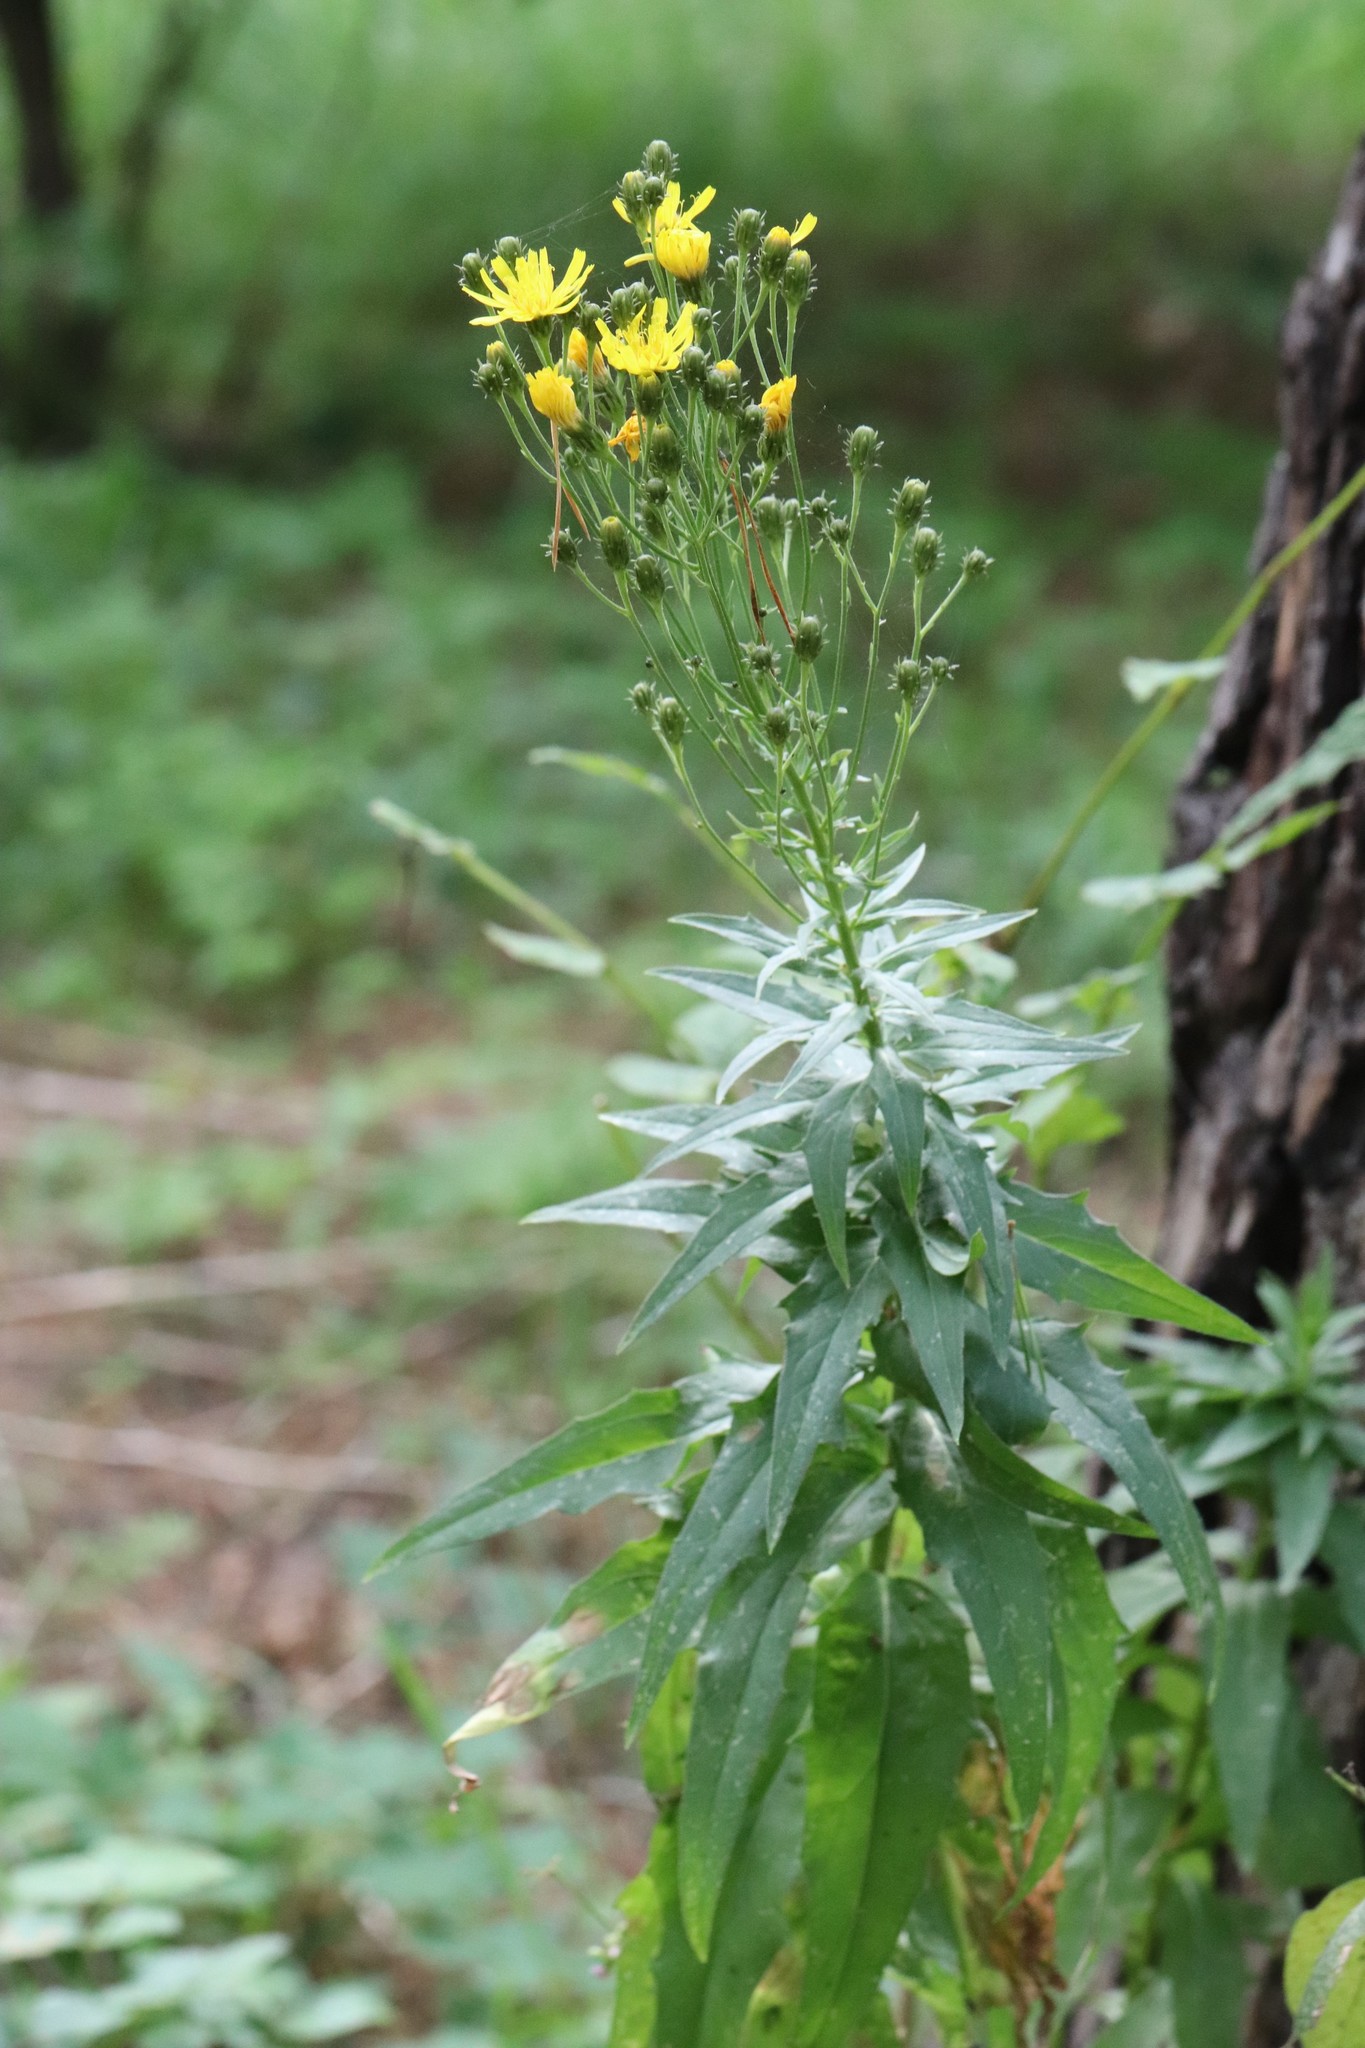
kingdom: Plantae
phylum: Tracheophyta
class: Magnoliopsida
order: Asterales
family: Asteraceae
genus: Hieracium
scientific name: Hieracium umbellatum
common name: Northern hawkweed
